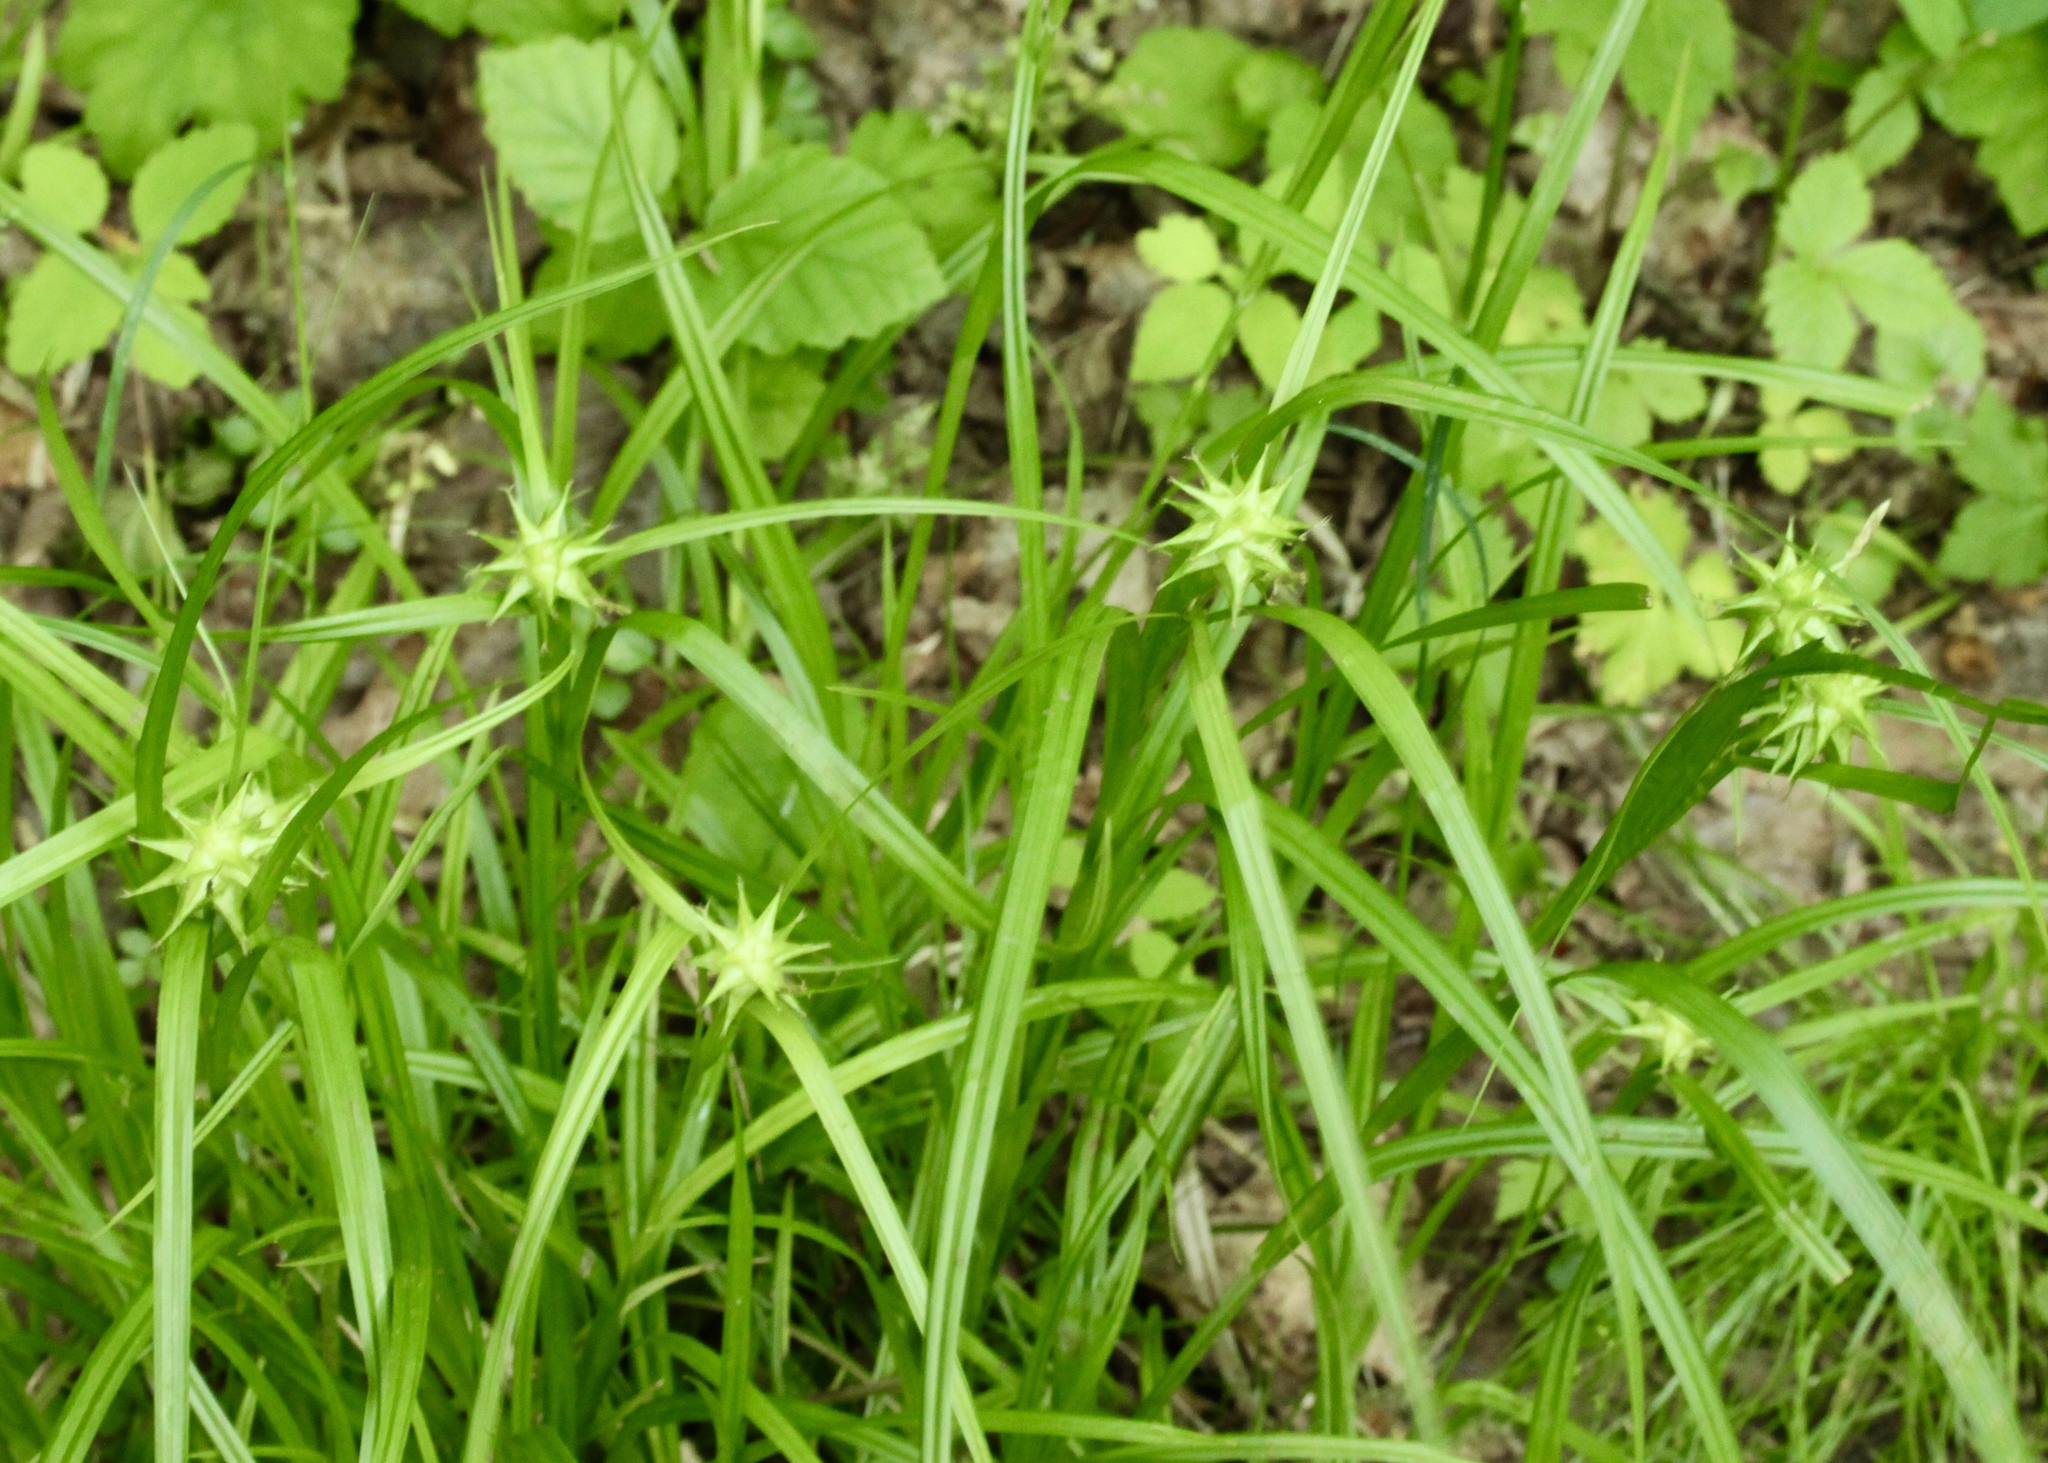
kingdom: Plantae
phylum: Tracheophyta
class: Liliopsida
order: Poales
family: Cyperaceae
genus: Carex
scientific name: Carex grayi
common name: Asa gray's sedge
